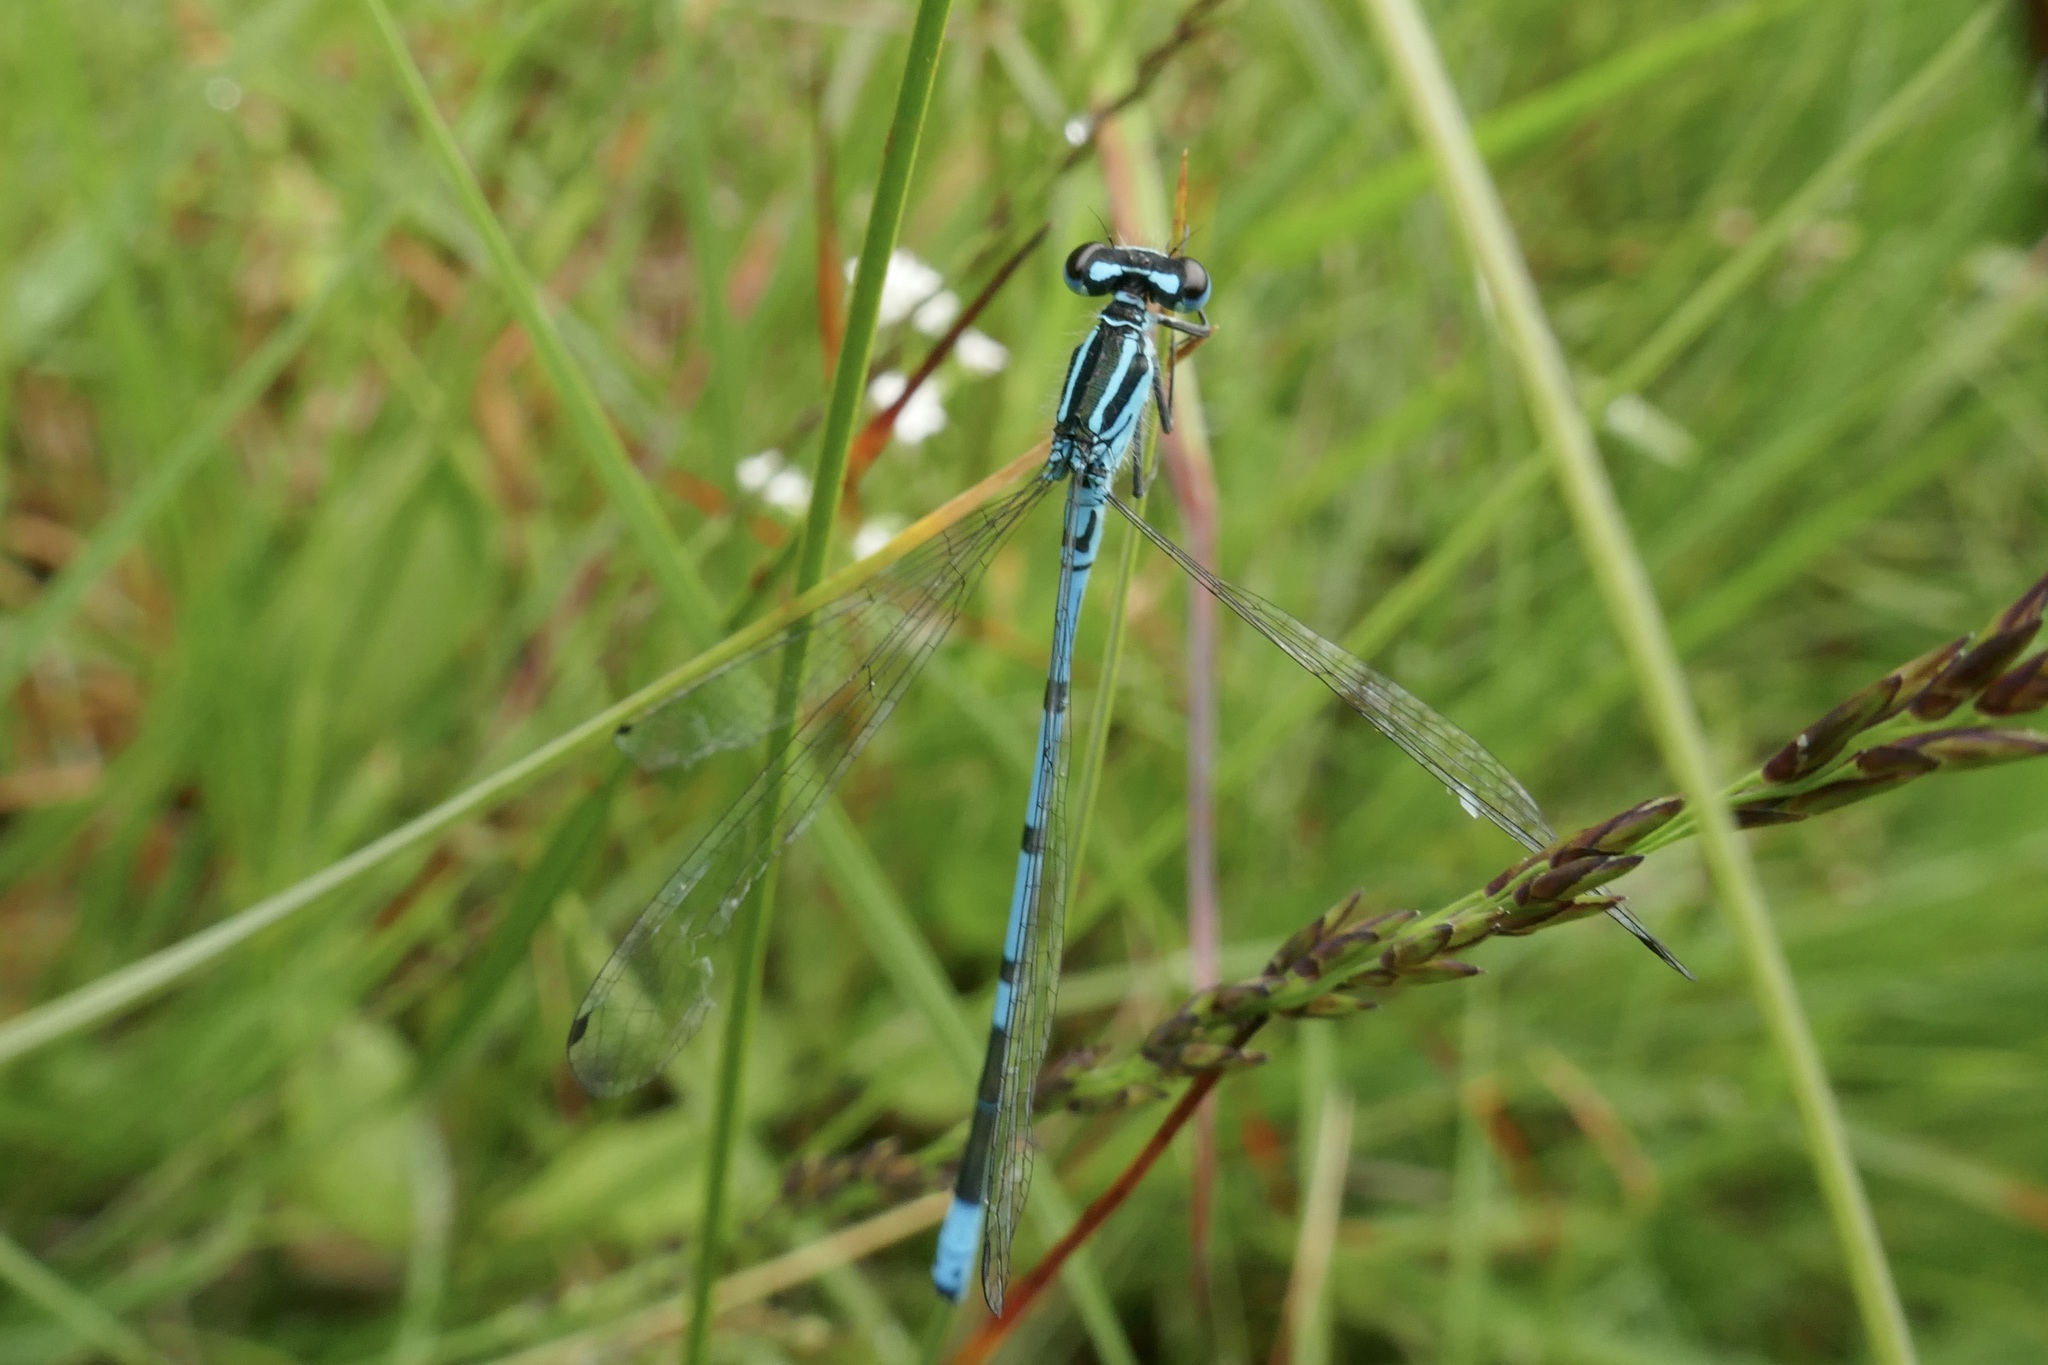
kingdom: Animalia
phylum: Arthropoda
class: Insecta
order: Odonata
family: Coenagrionidae
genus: Coenagrion
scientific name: Coenagrion puella
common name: Azure damselfly
